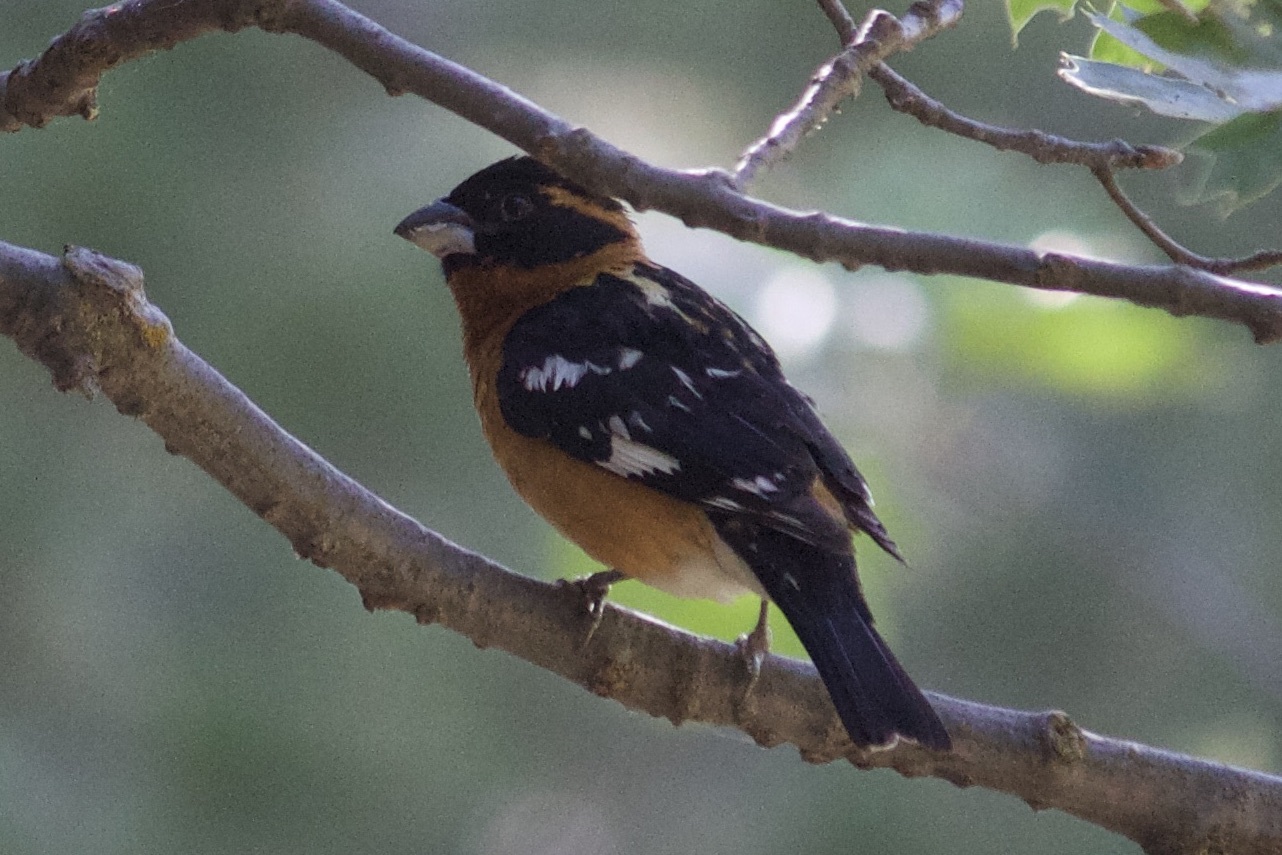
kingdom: Animalia
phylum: Chordata
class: Aves
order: Passeriformes
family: Cardinalidae
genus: Pheucticus
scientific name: Pheucticus melanocephalus
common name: Black-headed grosbeak
